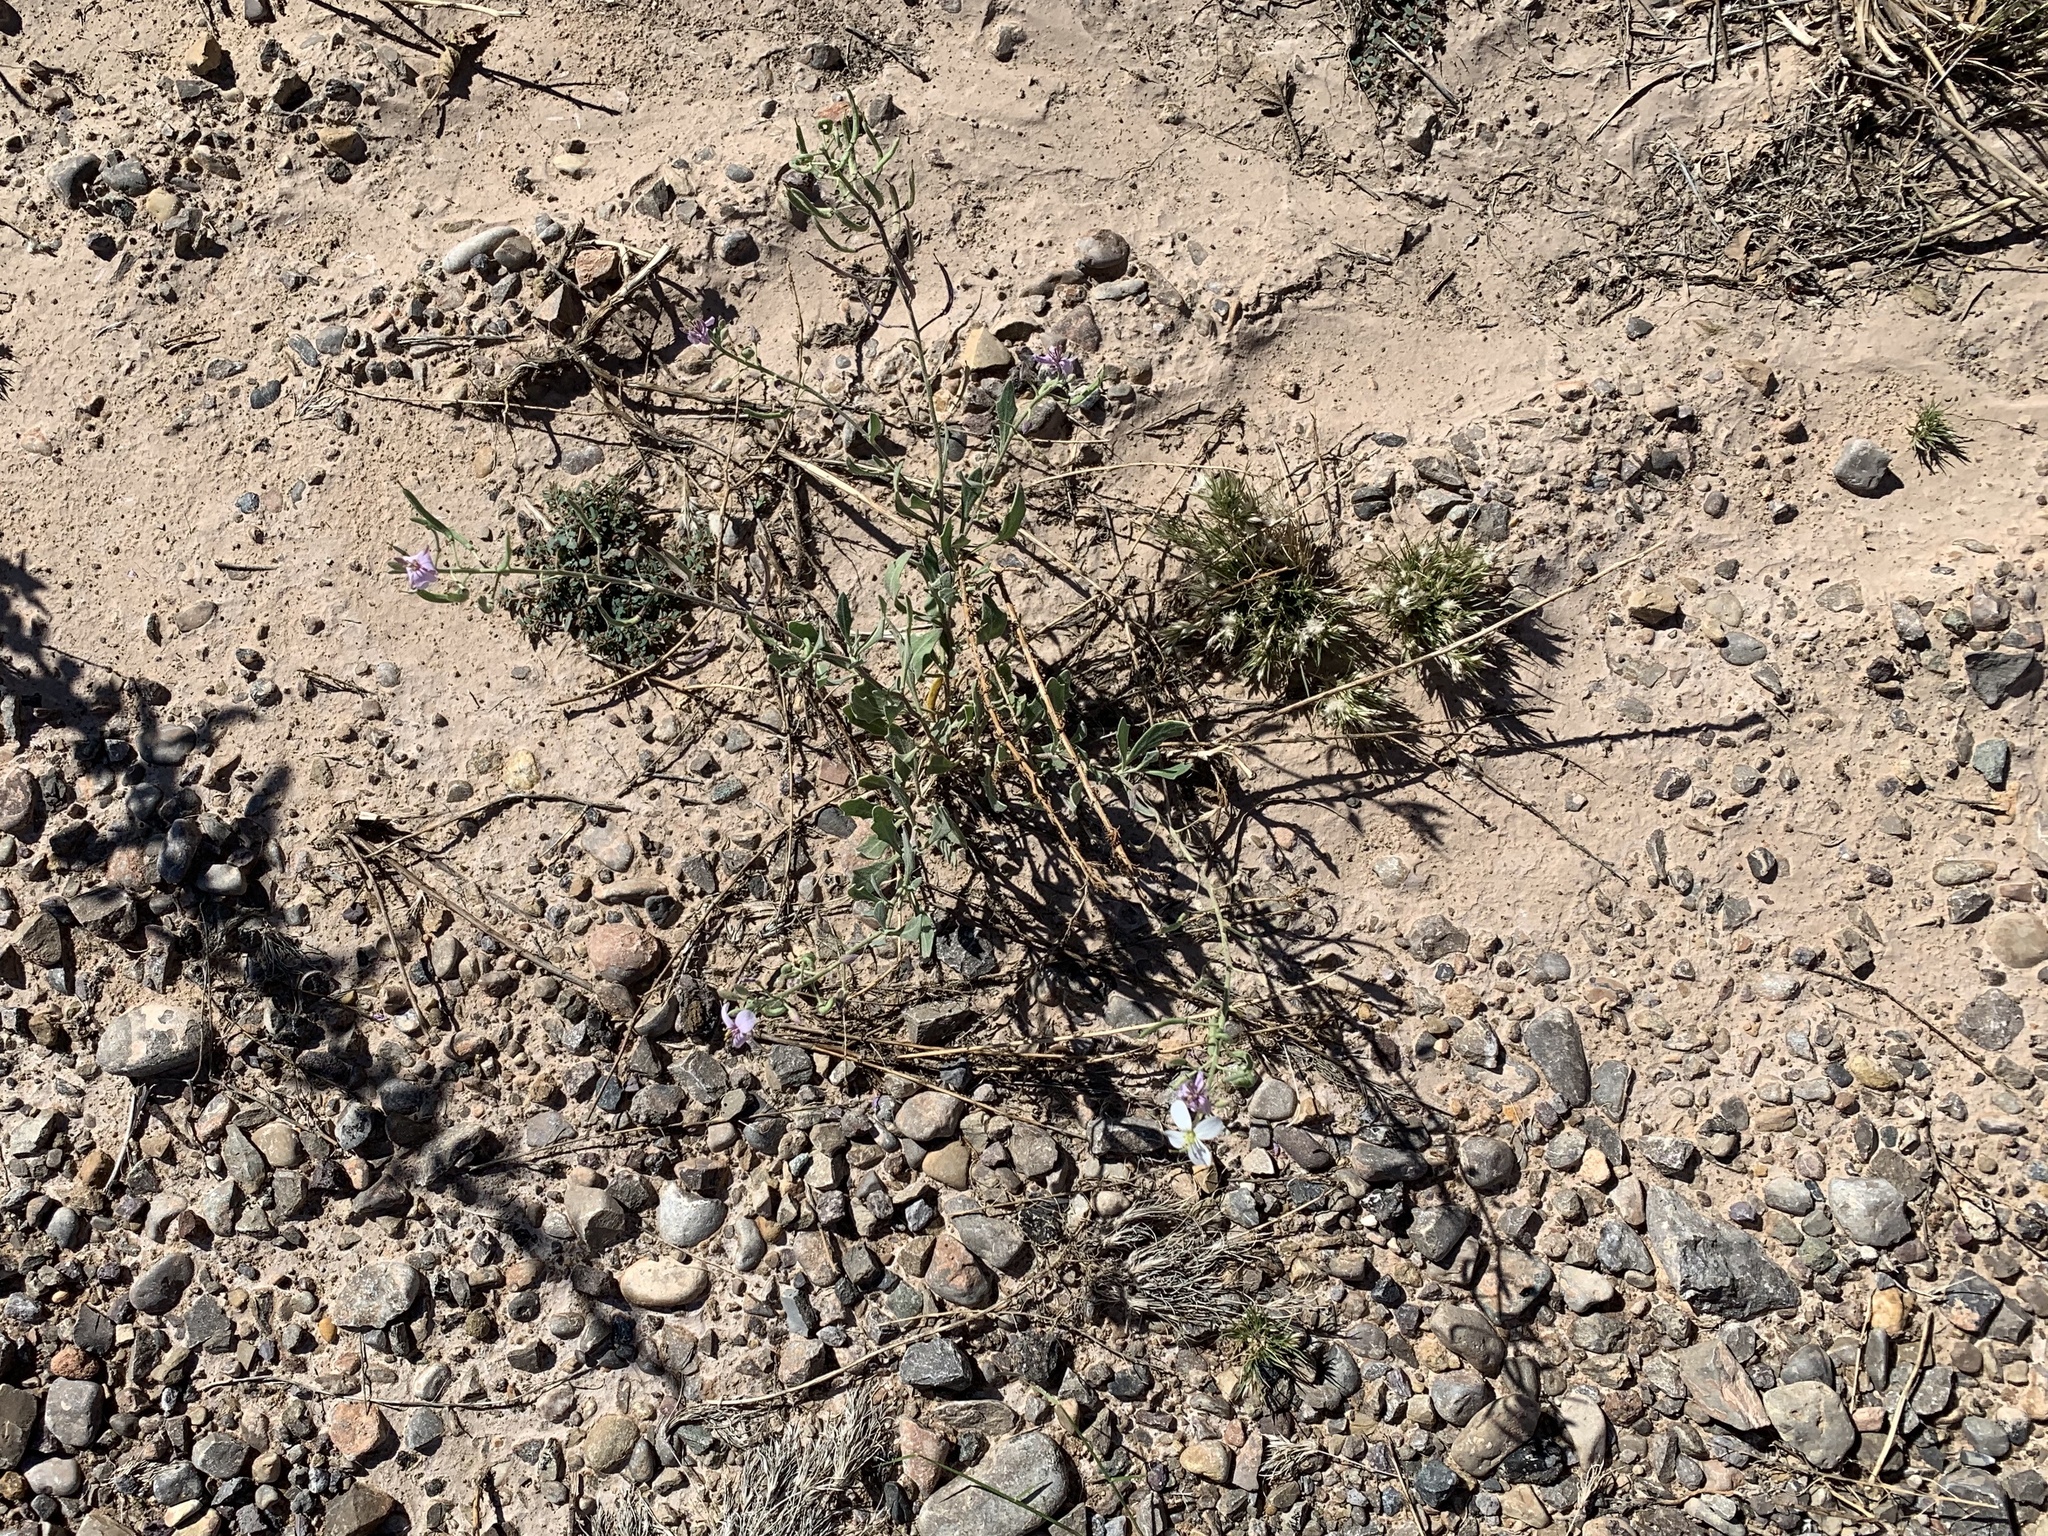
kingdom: Plantae
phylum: Tracheophyta
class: Magnoliopsida
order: Brassicales
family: Brassicaceae
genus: Nerisyrenia
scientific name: Nerisyrenia camporum
